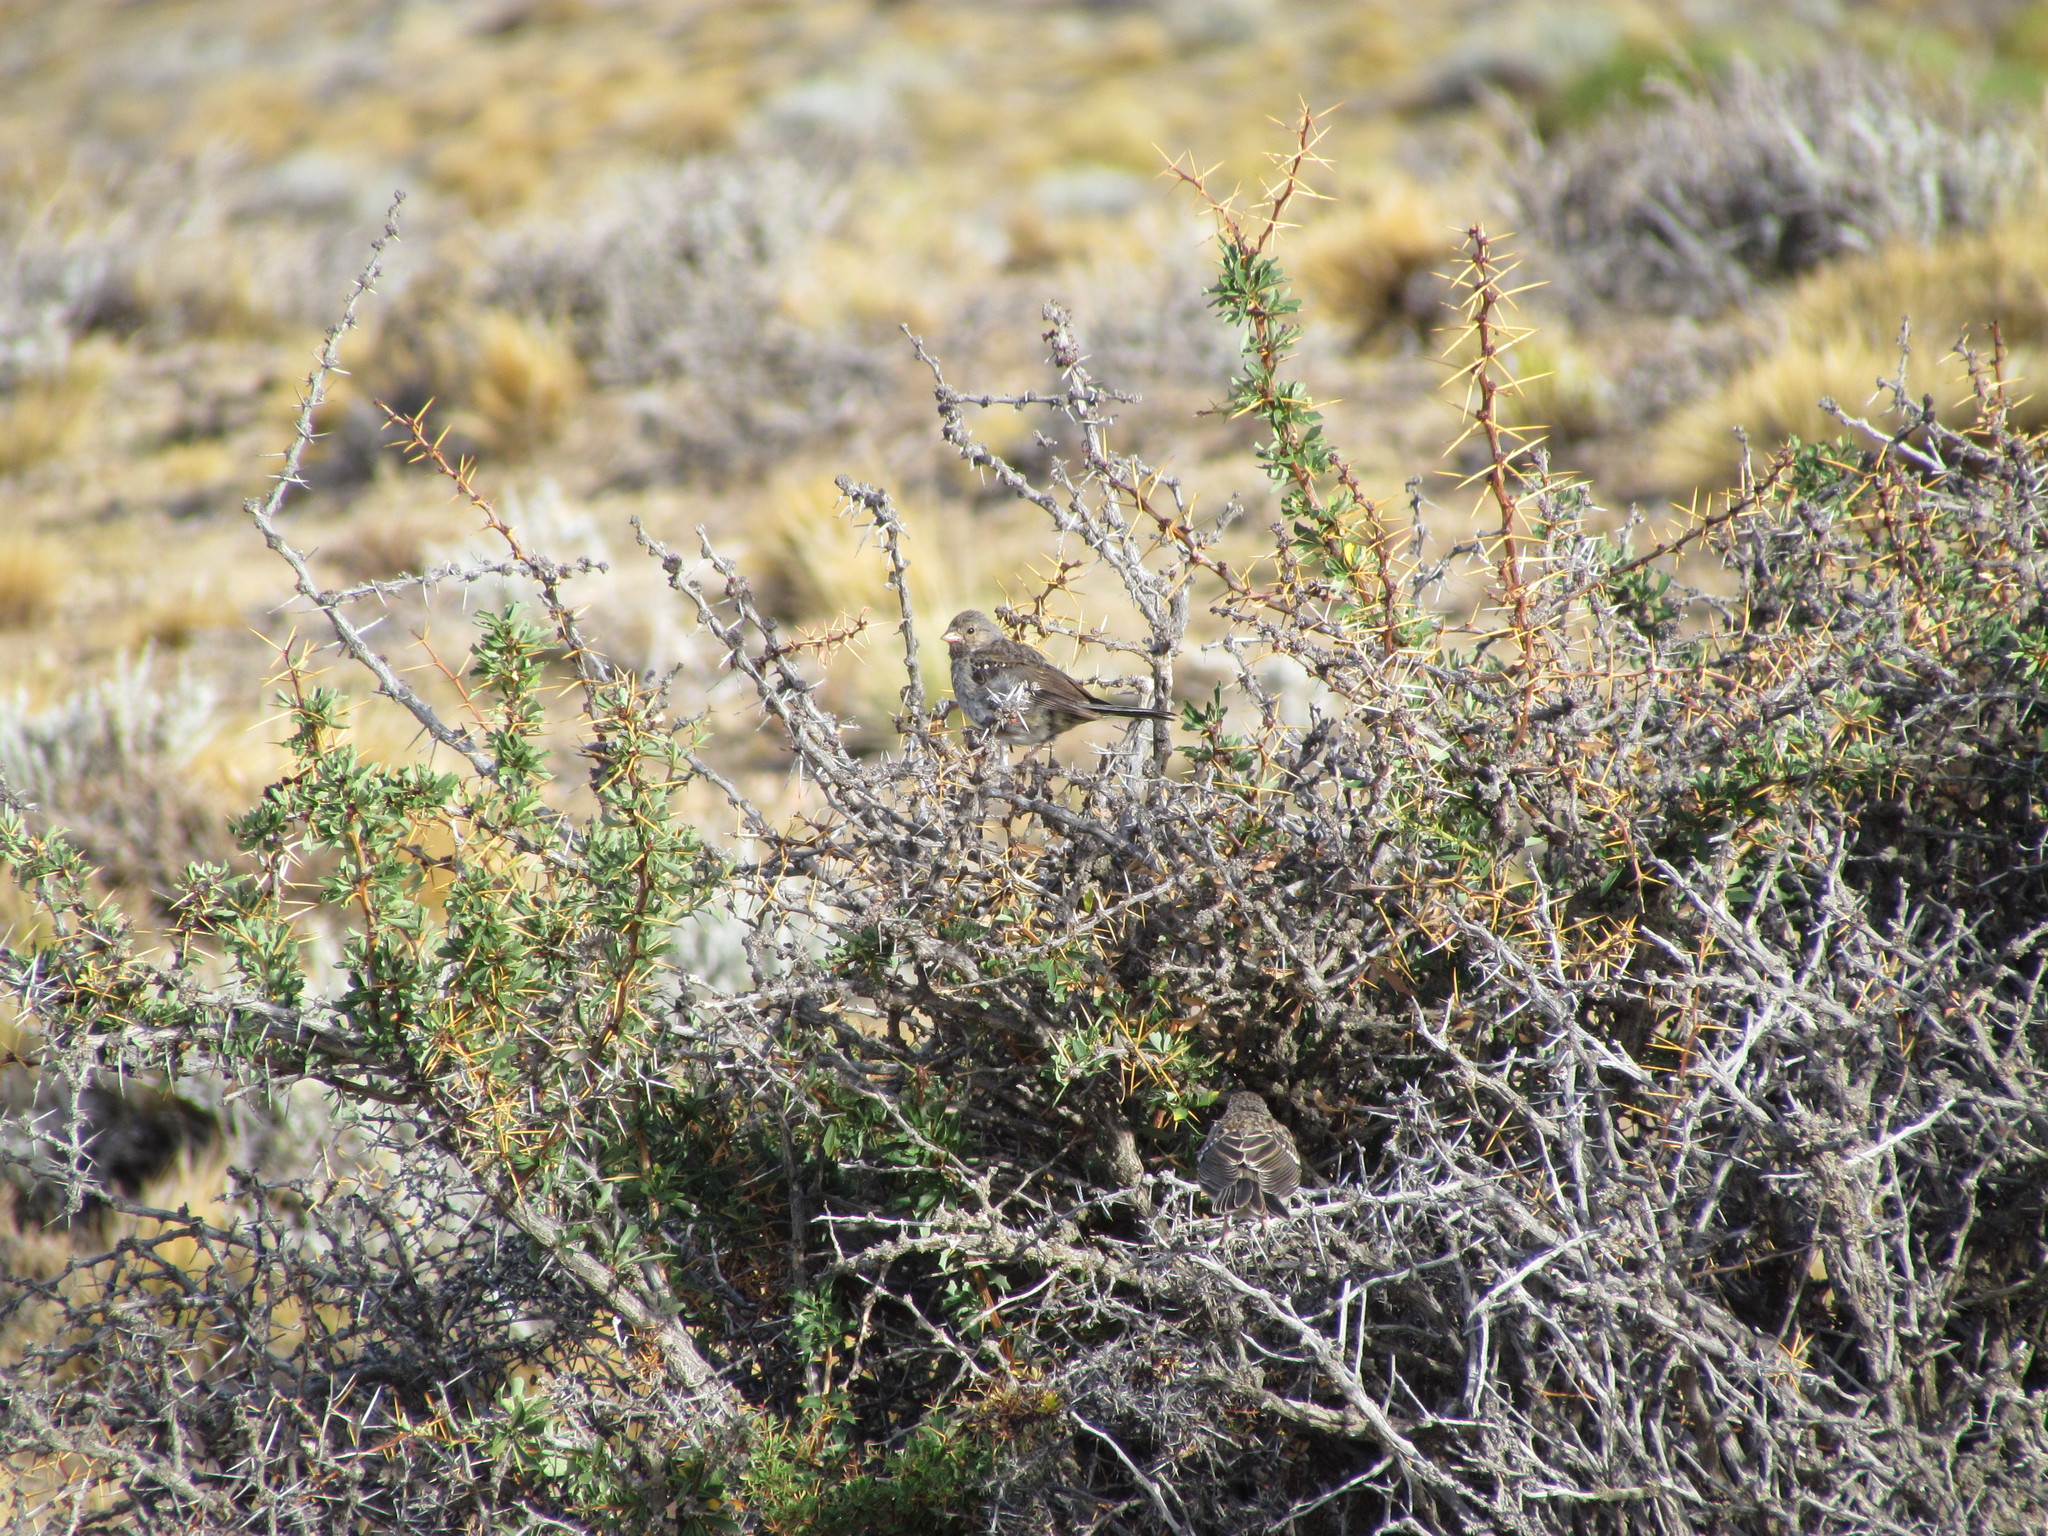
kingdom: Animalia
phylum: Chordata
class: Aves
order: Passeriformes
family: Thraupidae
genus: Rhopospina
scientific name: Rhopospina fruticeti
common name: Mourning sierra finch
